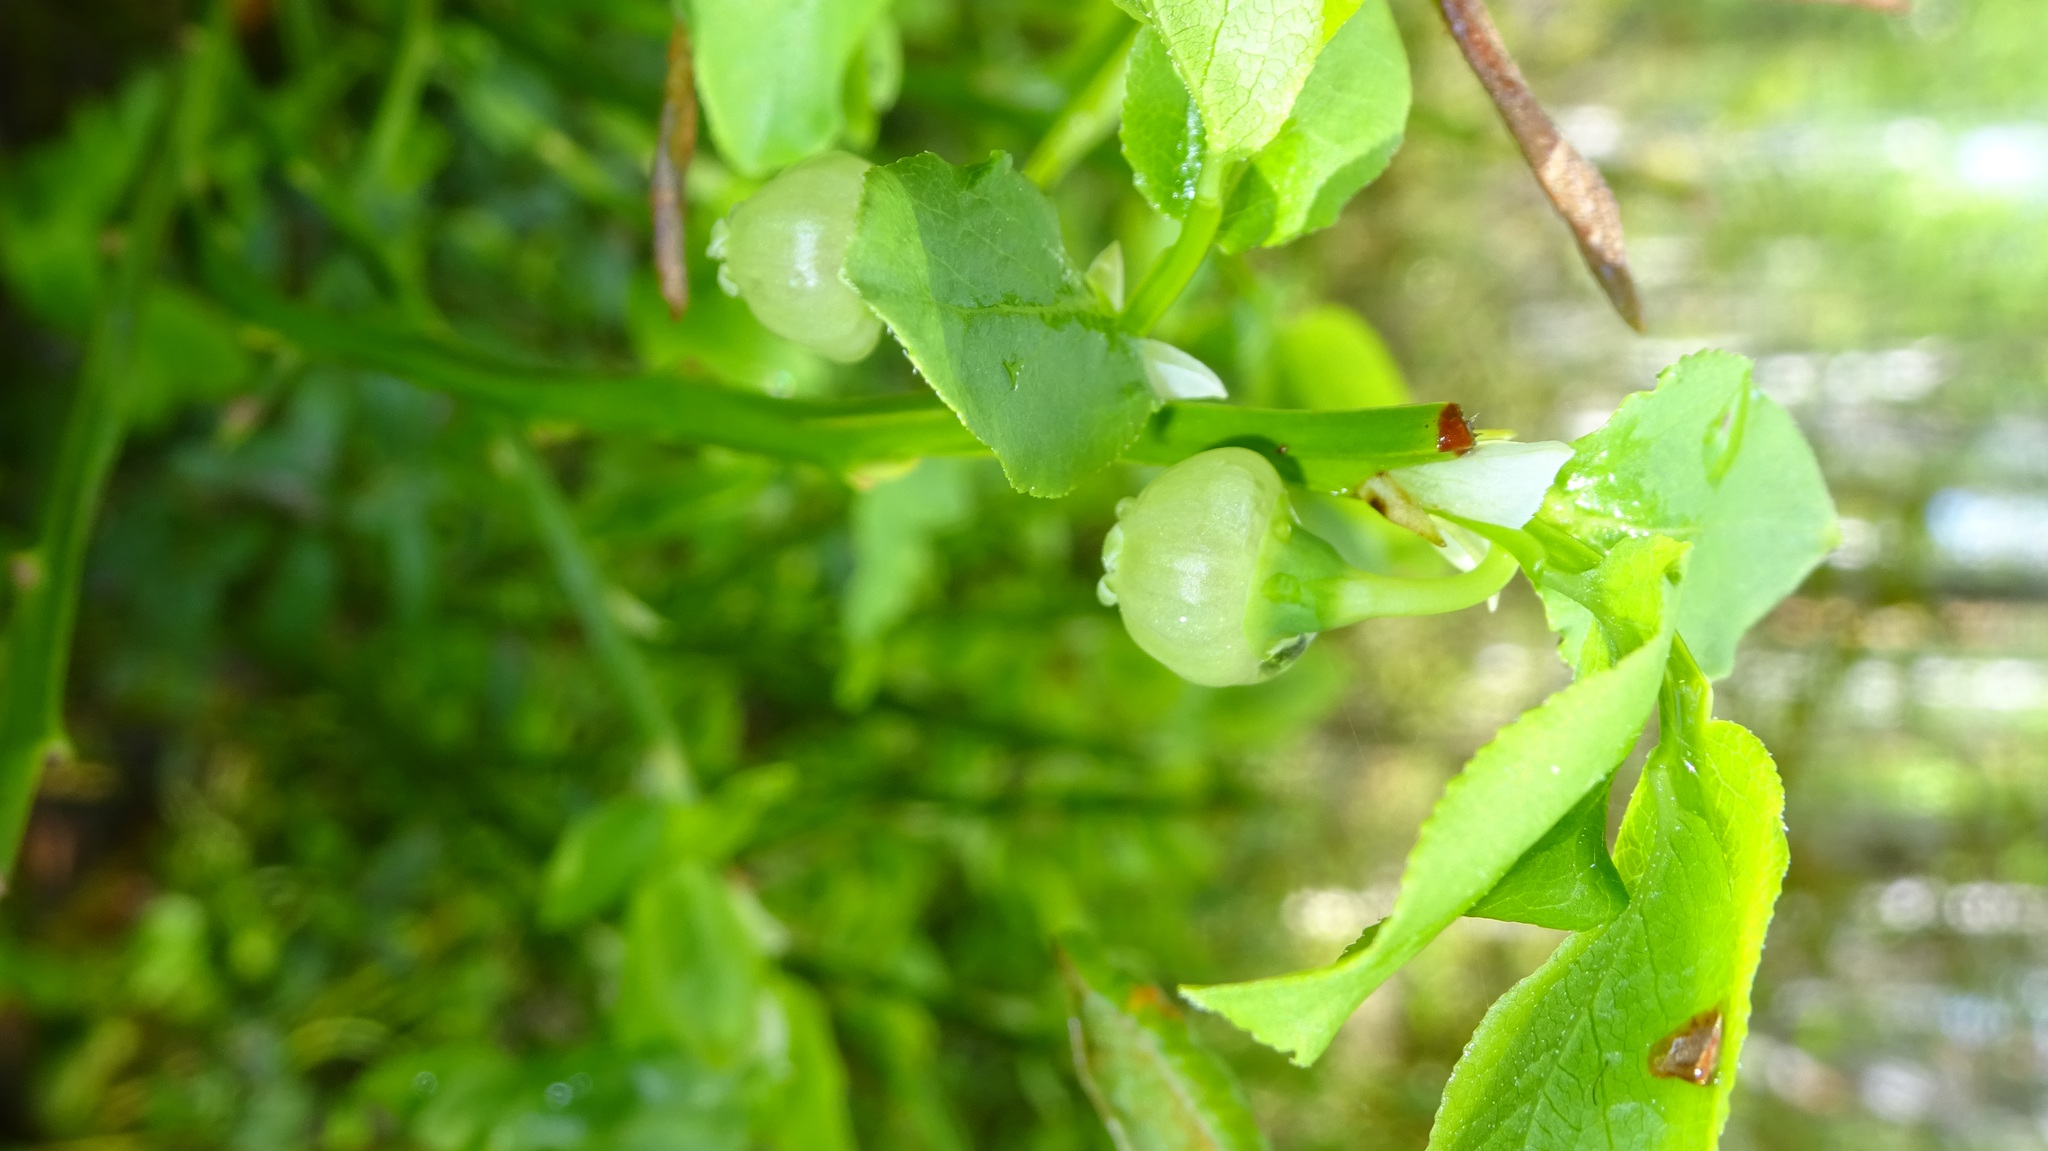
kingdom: Plantae
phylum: Tracheophyta
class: Magnoliopsida
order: Ericales
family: Ericaceae
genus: Vaccinium
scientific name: Vaccinium myrtillus
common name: Bilberry
